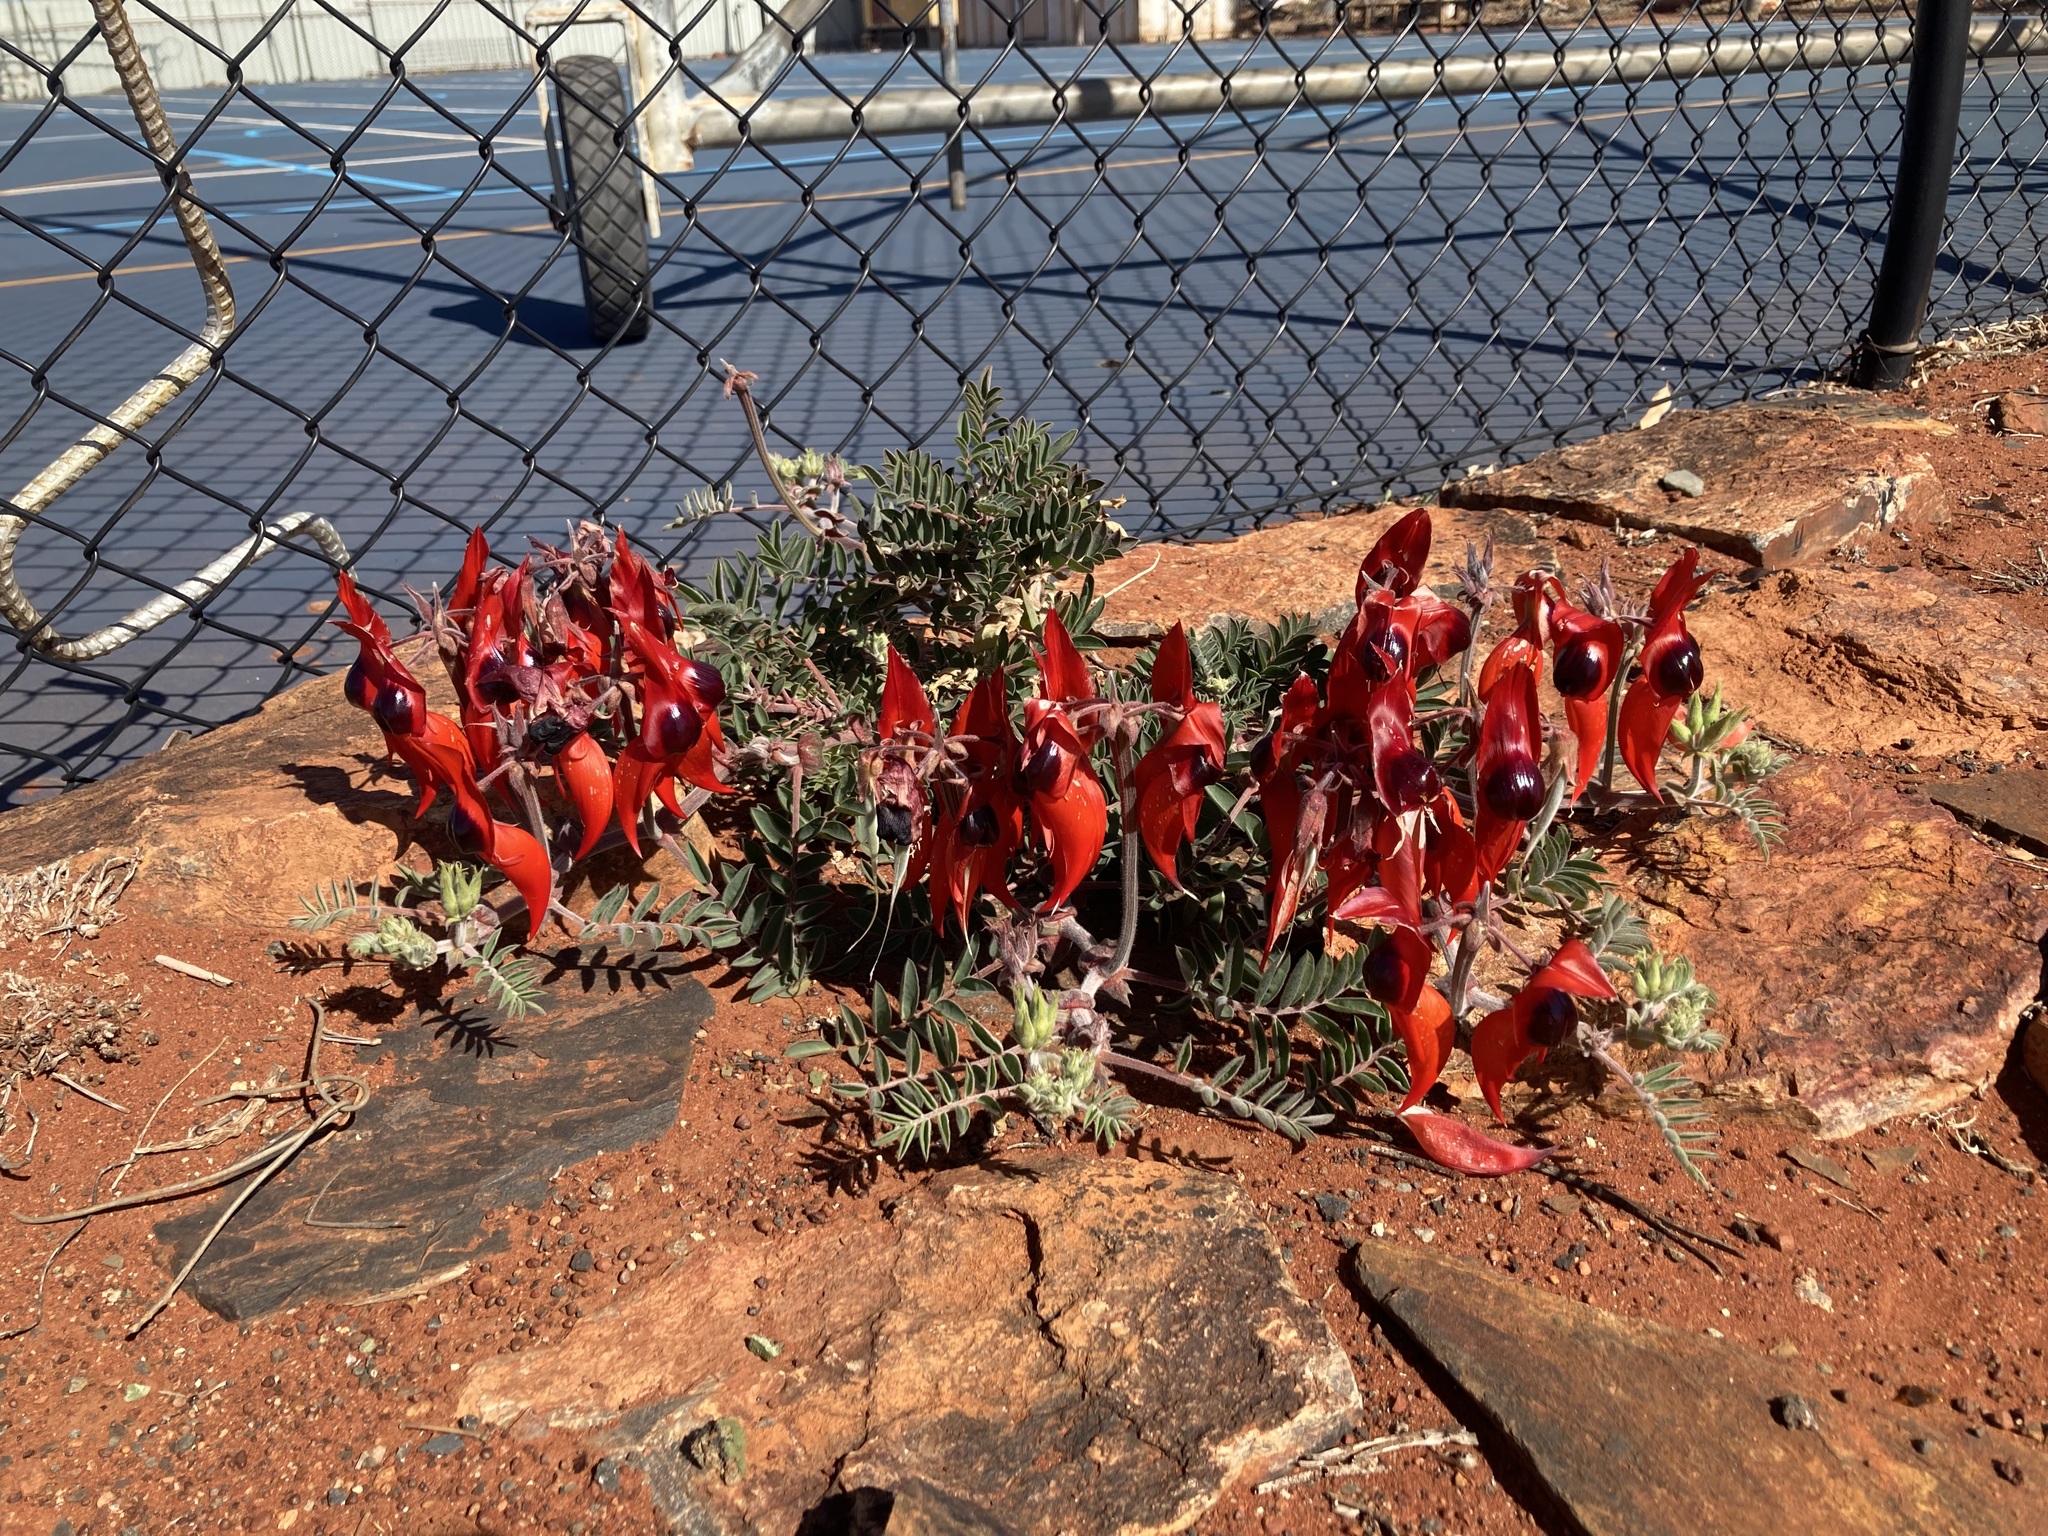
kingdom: Plantae
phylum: Tracheophyta
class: Magnoliopsida
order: Fabales
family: Fabaceae
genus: Swainsona
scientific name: Swainsona formosa
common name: Sturt's desert-pea
